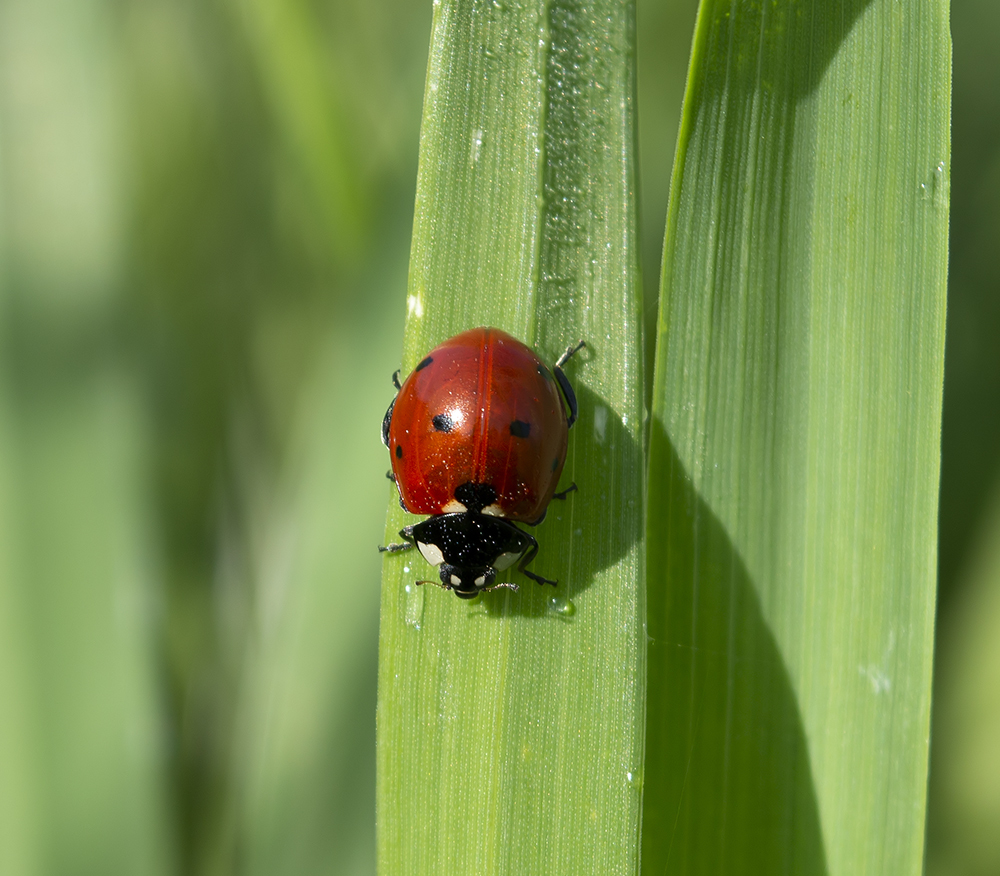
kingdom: Animalia
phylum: Arthropoda
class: Insecta
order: Coleoptera
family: Coccinellidae
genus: Coccinella
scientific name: Coccinella septempunctata
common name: Sevenspotted lady beetle
